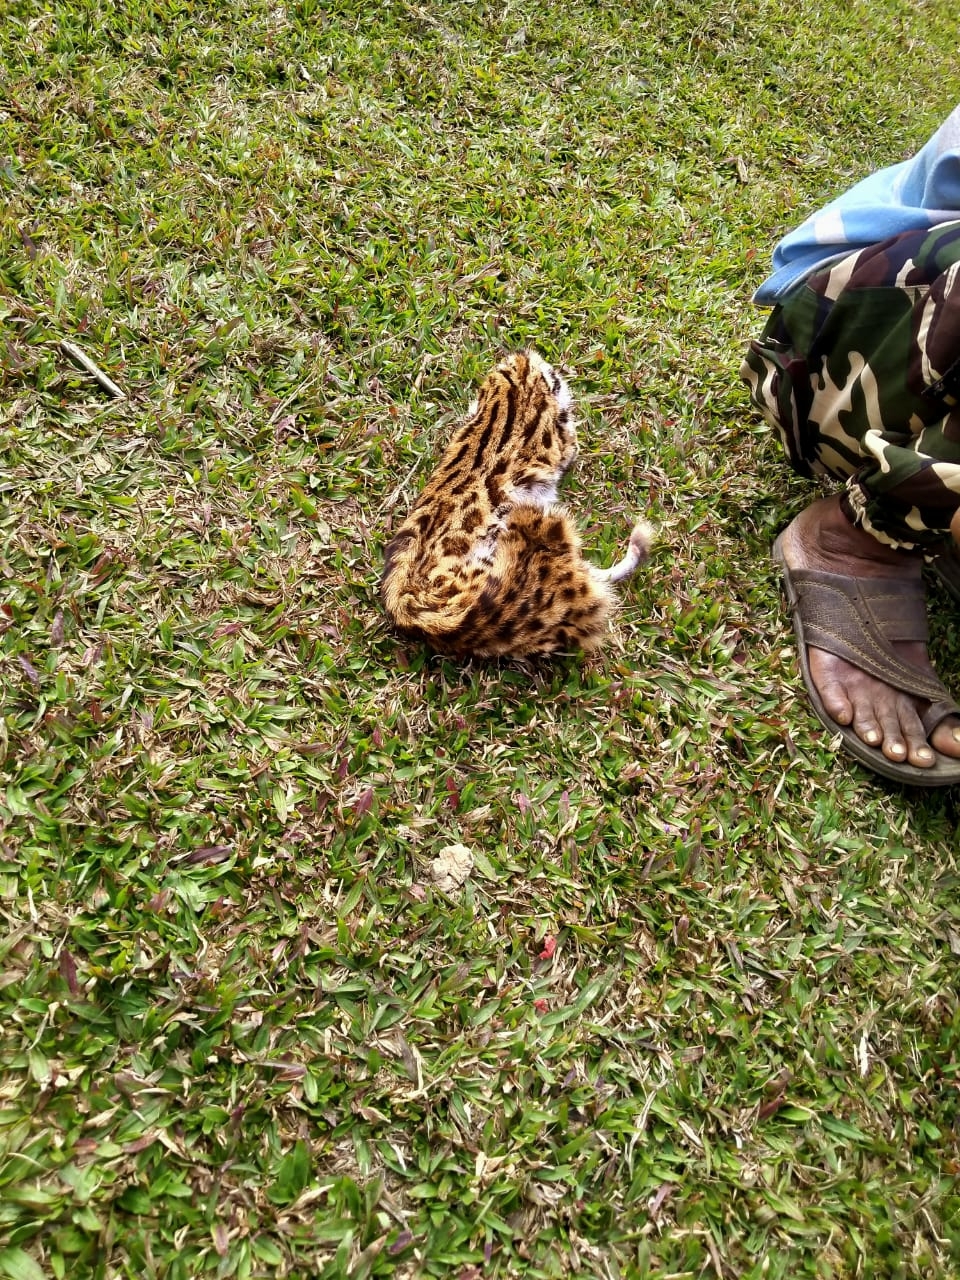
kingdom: Animalia
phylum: Chordata
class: Mammalia
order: Carnivora
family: Felidae
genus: Prionailurus
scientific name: Prionailurus bengalensis
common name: Leopard cat
